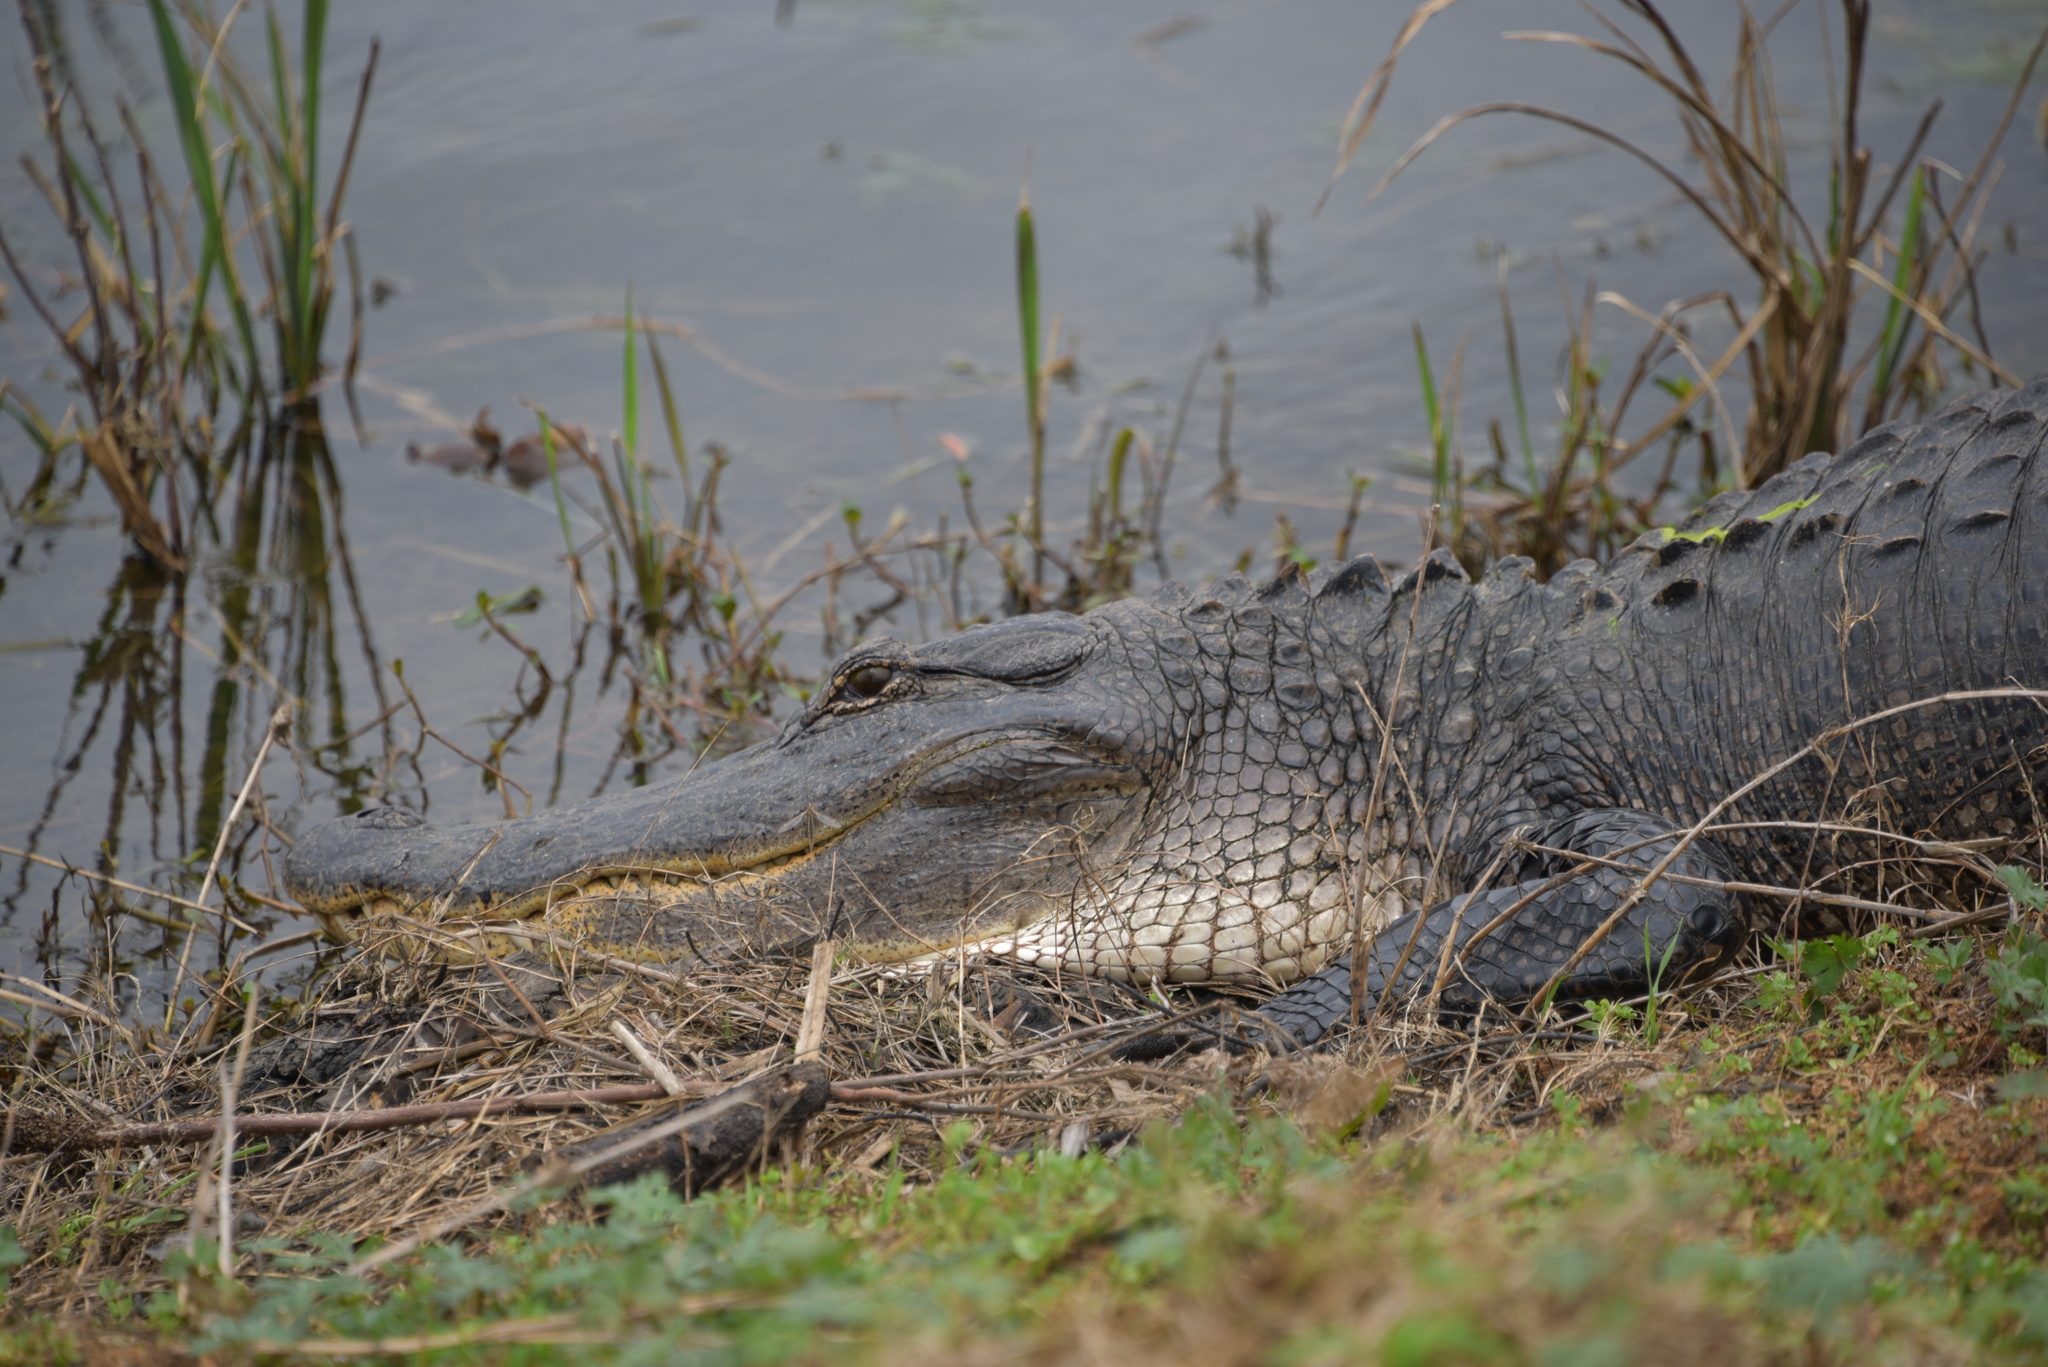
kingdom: Animalia
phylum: Chordata
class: Crocodylia
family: Alligatoridae
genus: Alligator
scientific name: Alligator mississippiensis
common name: American alligator
